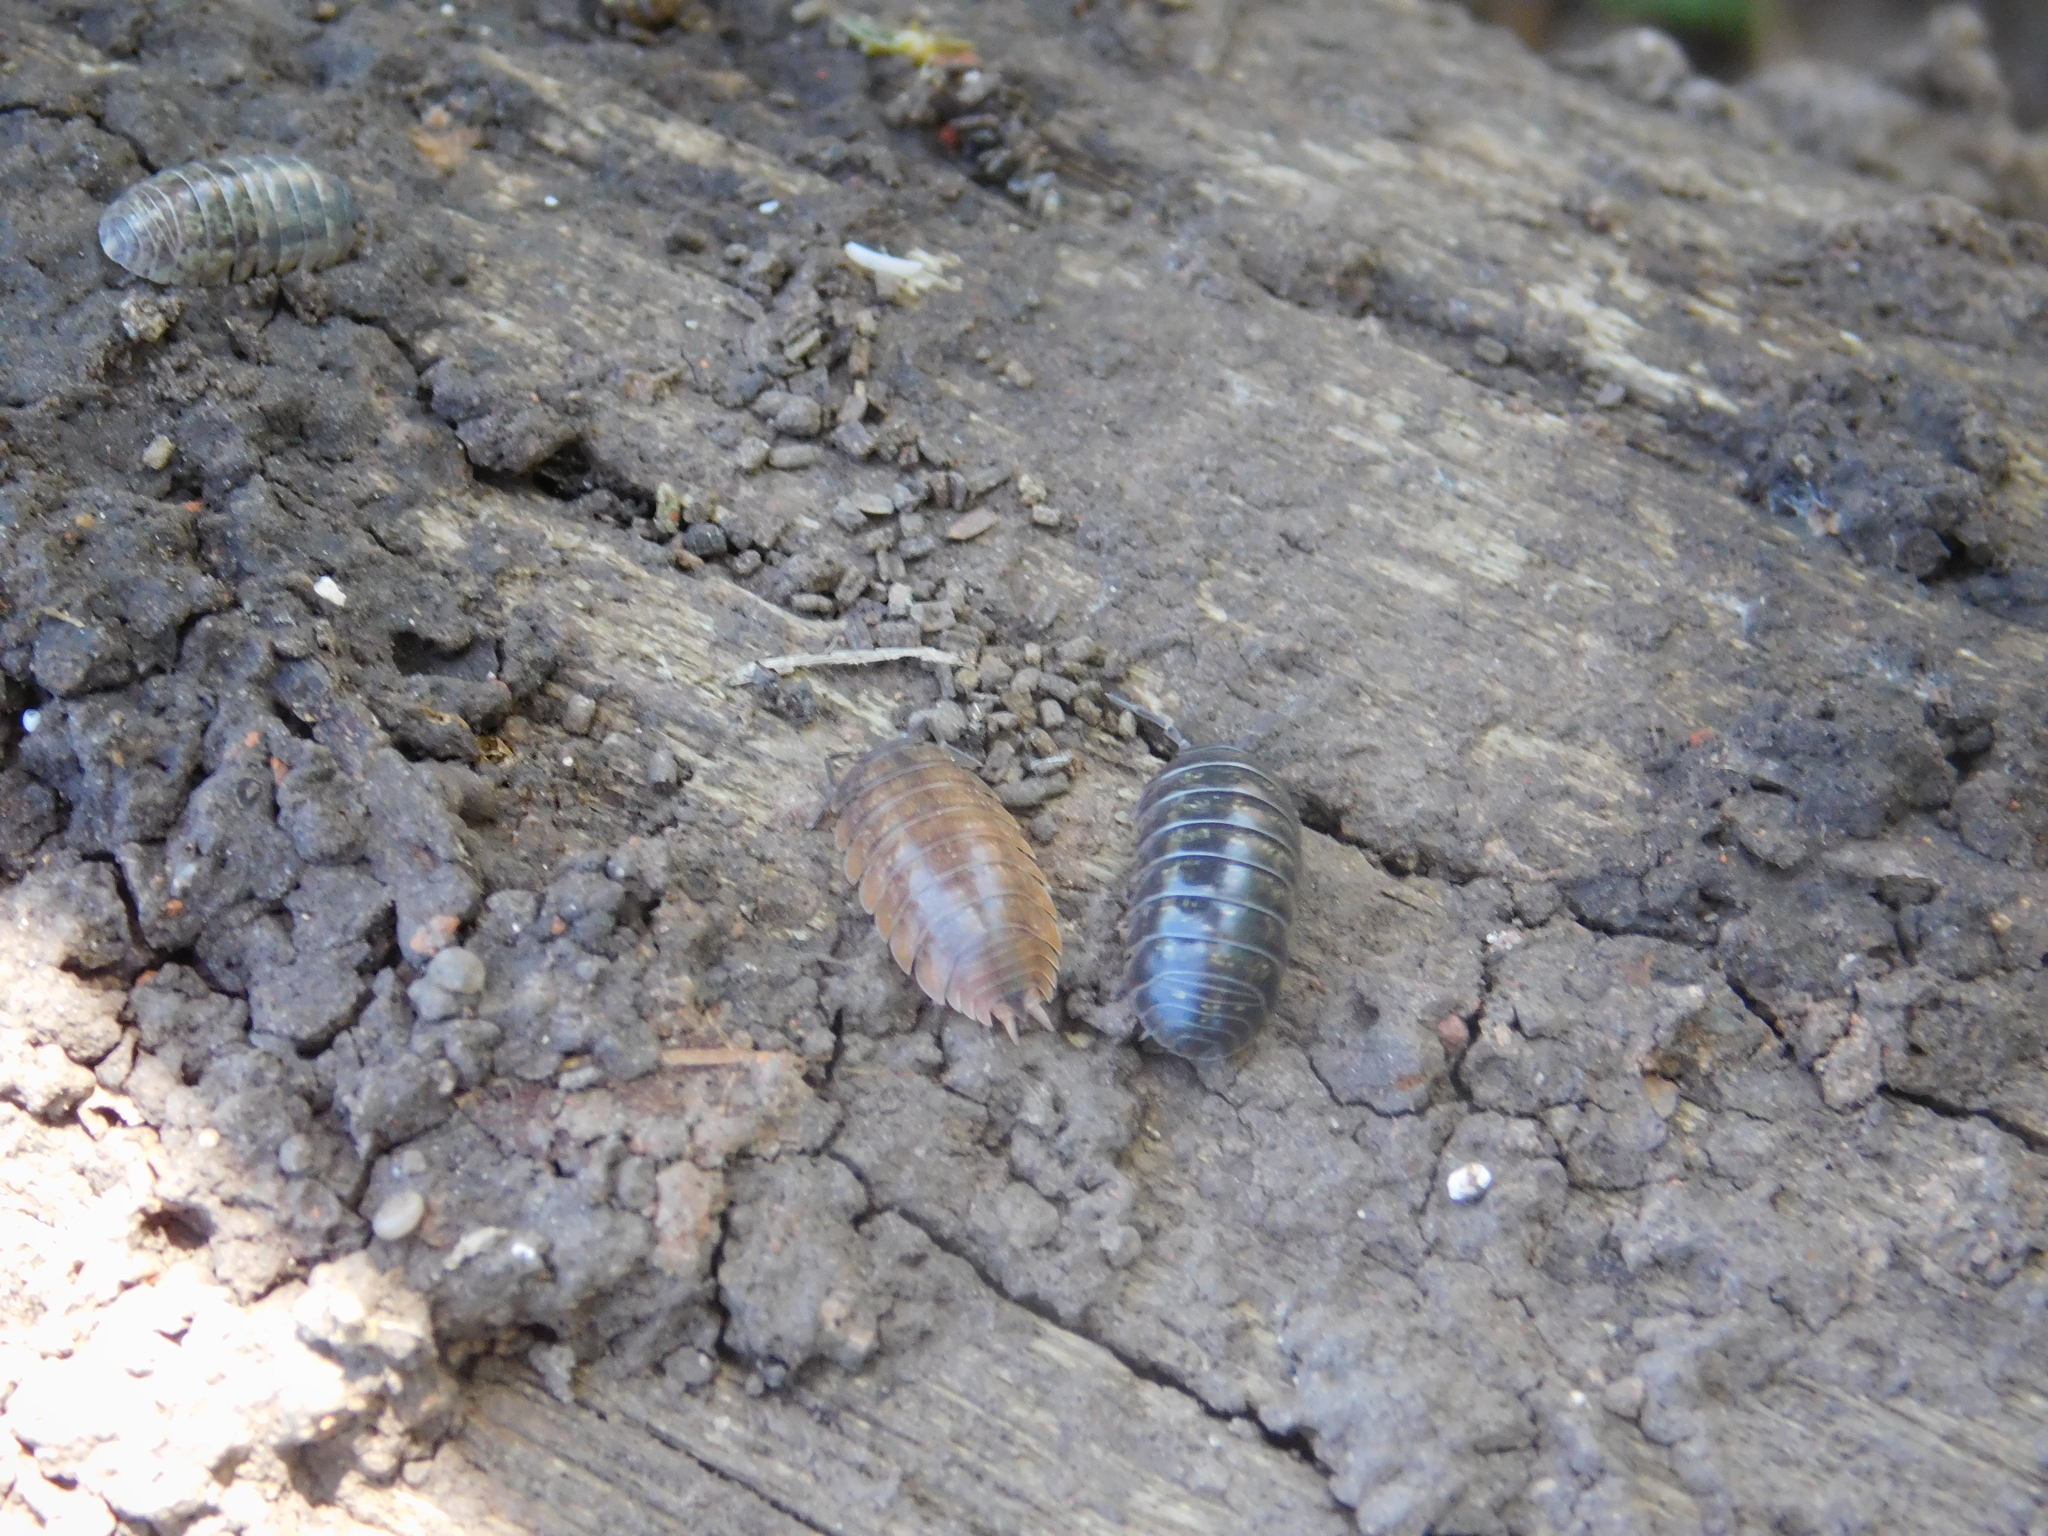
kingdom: Animalia
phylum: Arthropoda
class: Malacostraca
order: Isopoda
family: Armadillidiidae
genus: Armadillidium
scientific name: Armadillidium vulgare
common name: Common pill woodlouse
